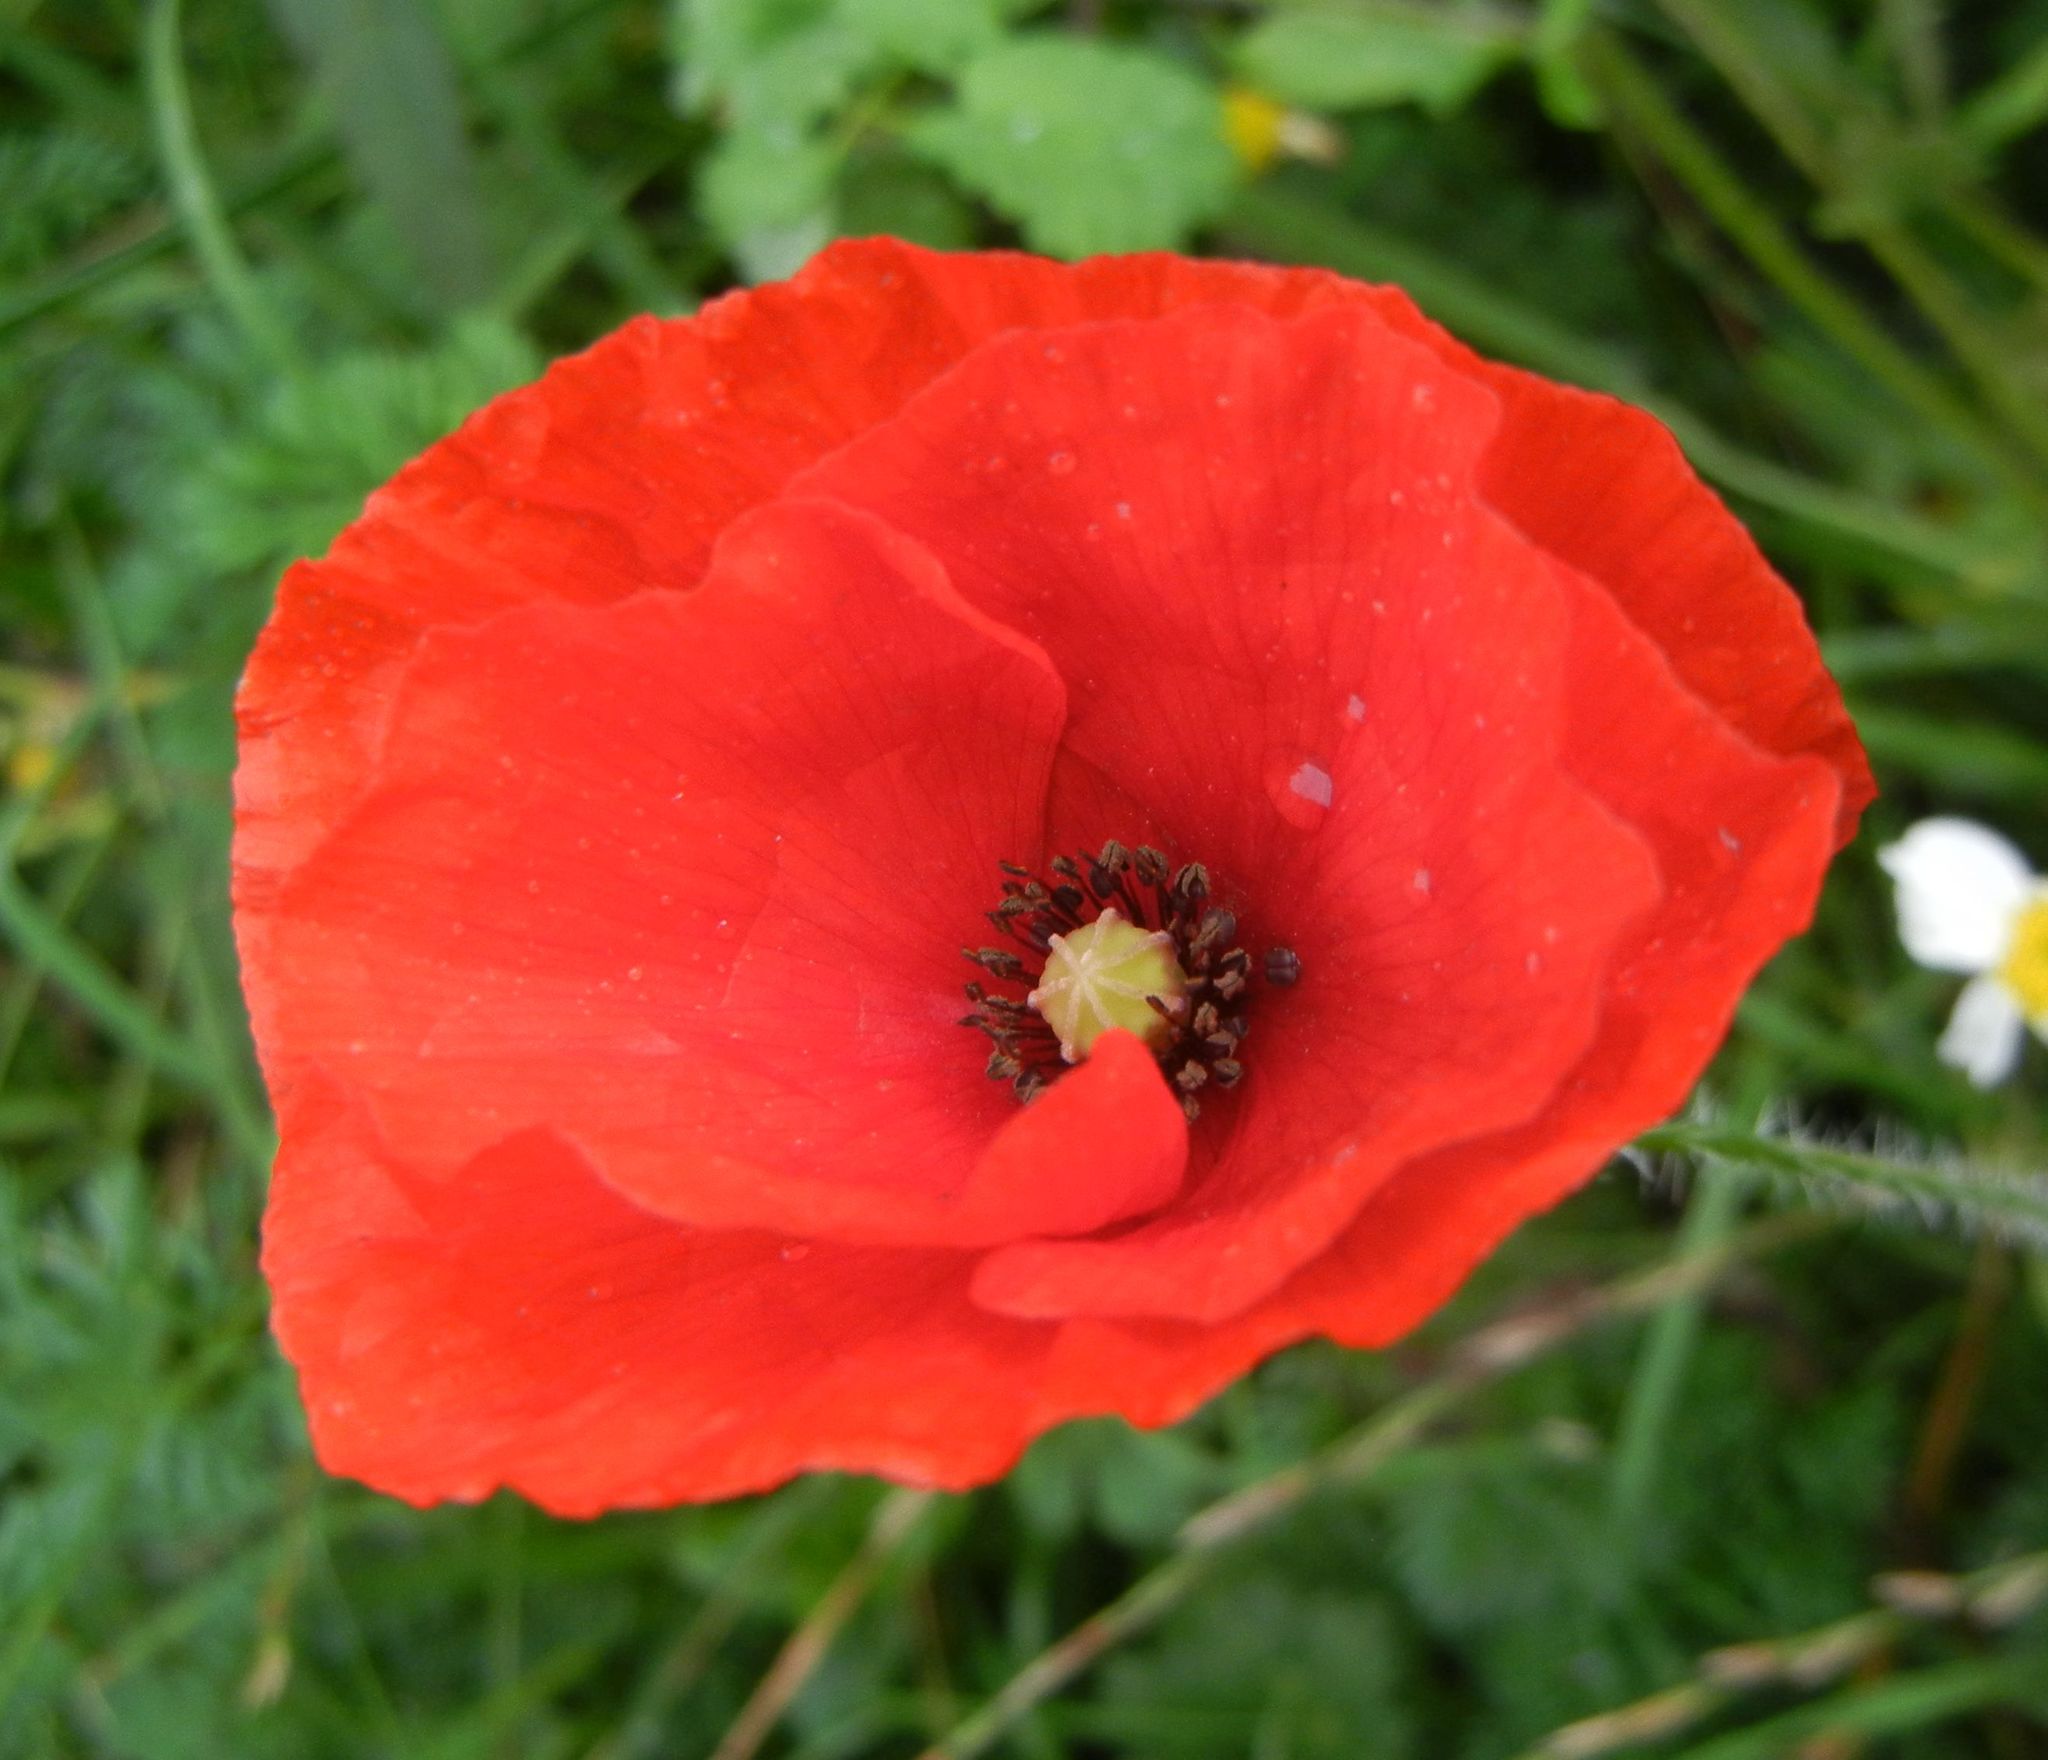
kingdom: Plantae
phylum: Tracheophyta
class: Magnoliopsida
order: Ranunculales
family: Papaveraceae
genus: Papaver
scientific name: Papaver rhoeas
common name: Corn poppy
